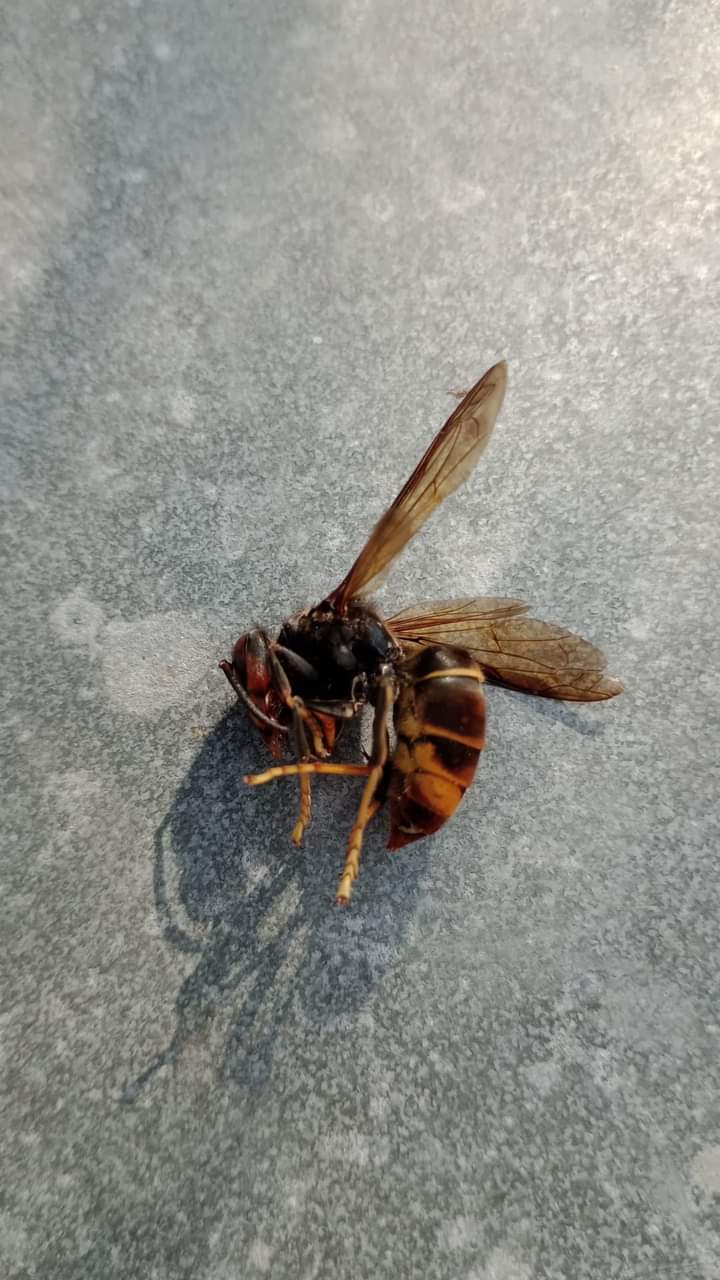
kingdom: Animalia
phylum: Arthropoda
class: Insecta
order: Hymenoptera
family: Vespidae
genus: Vespa
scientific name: Vespa velutina
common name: Asian hornet
